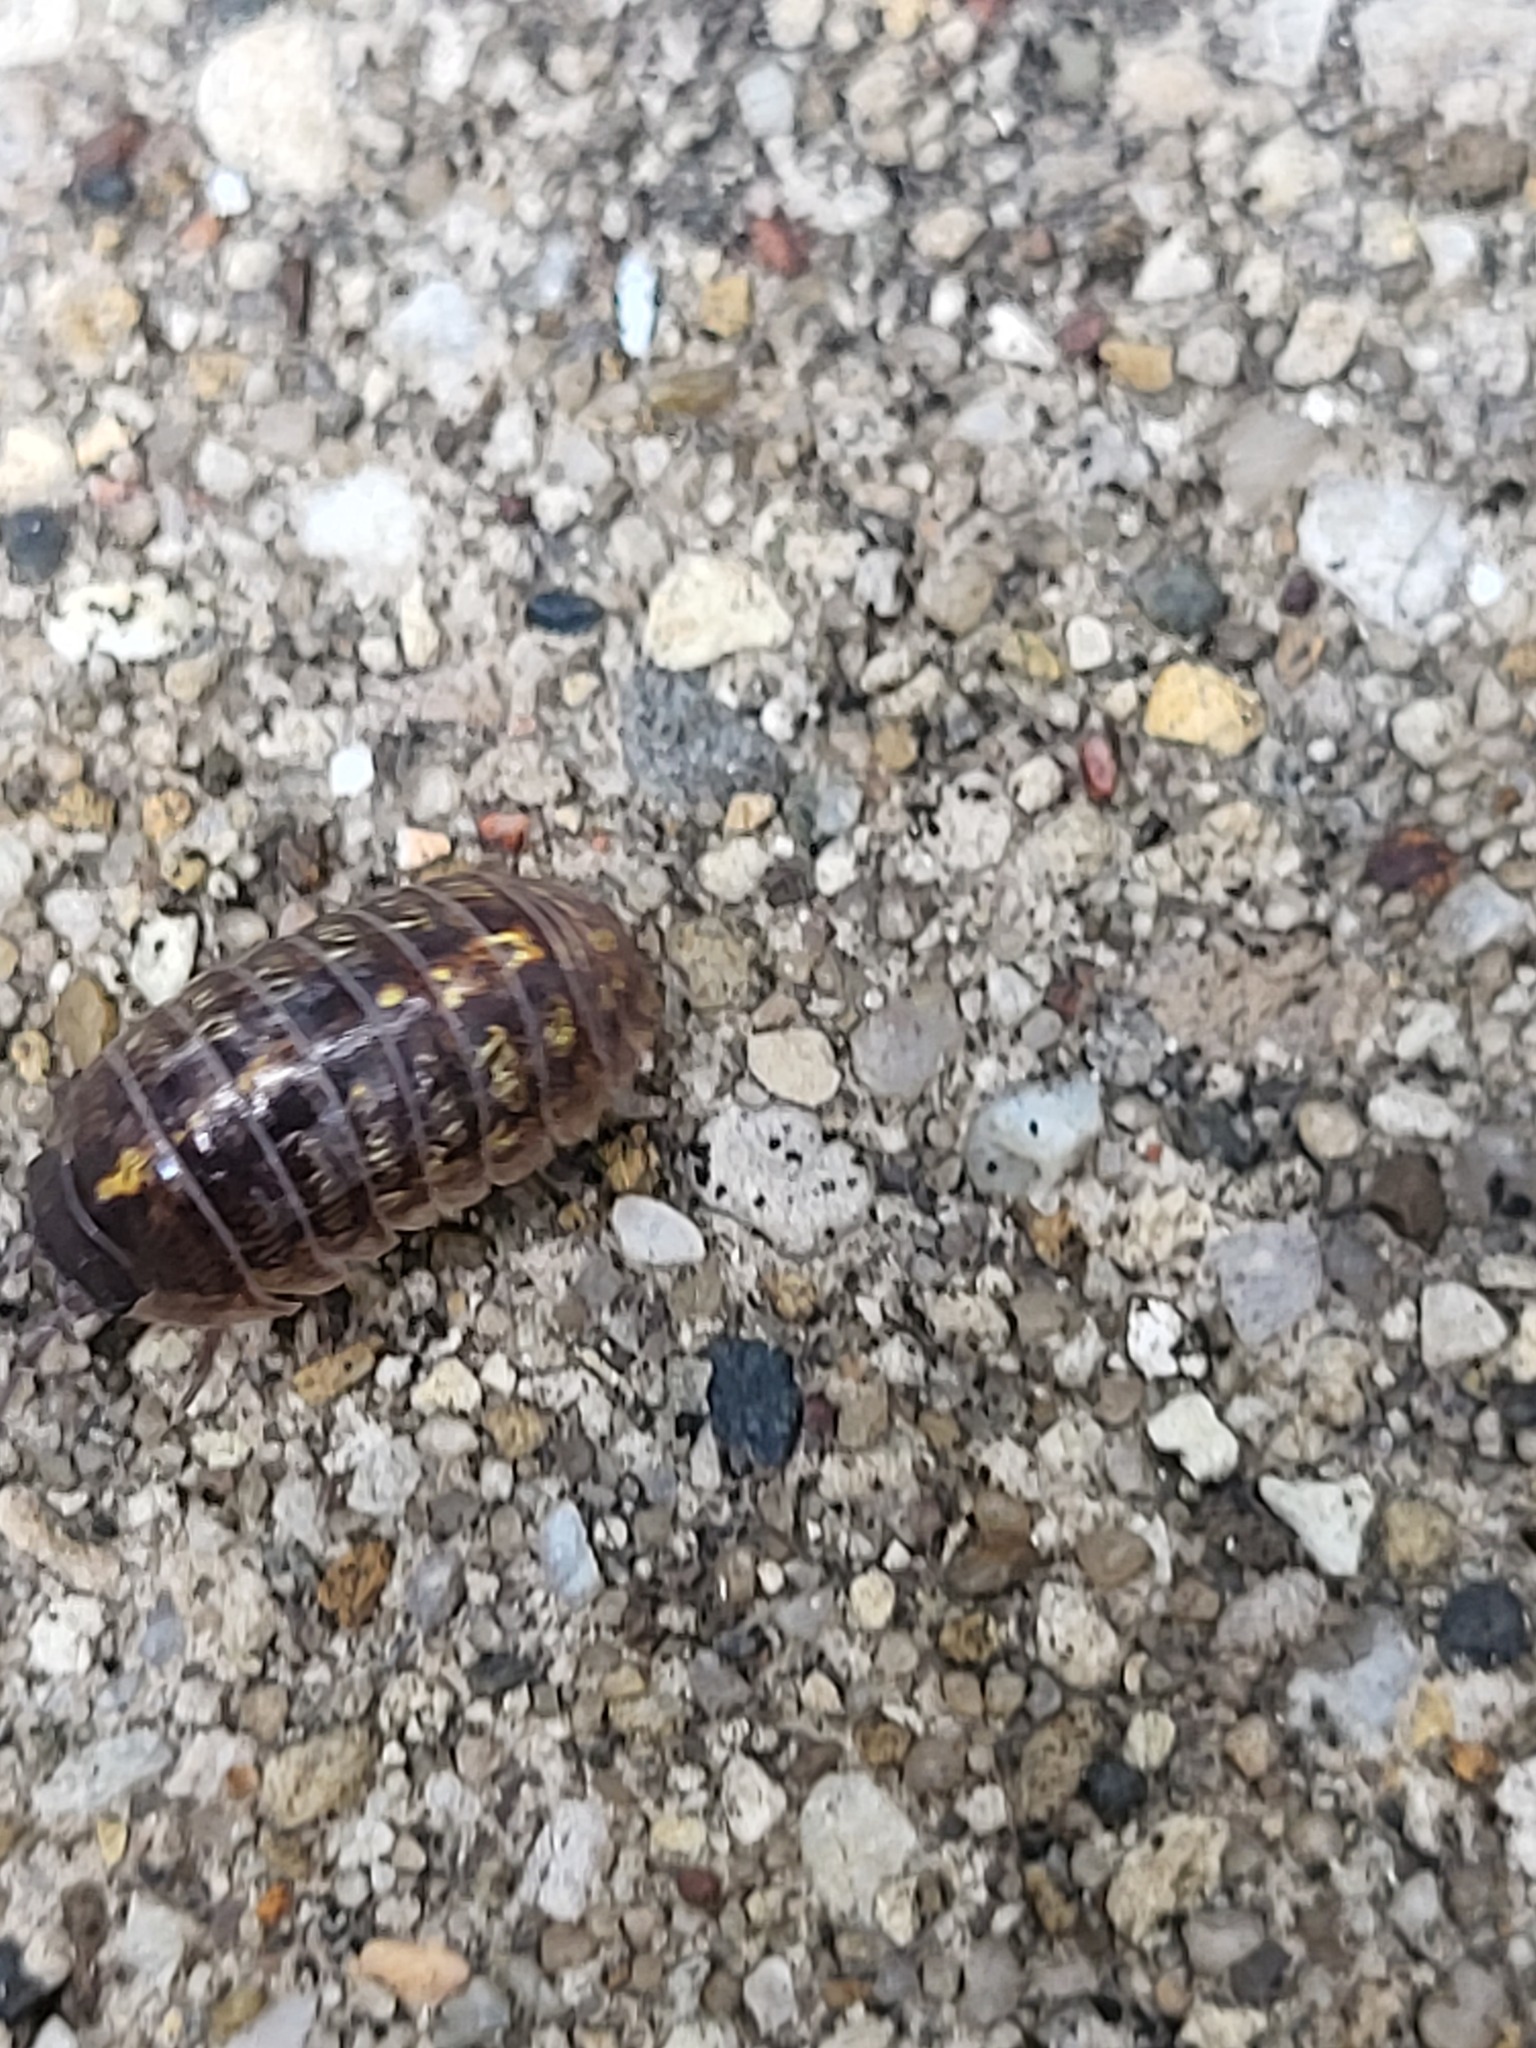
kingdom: Animalia
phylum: Arthropoda
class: Malacostraca
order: Isopoda
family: Armadillidiidae
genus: Armadillidium
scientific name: Armadillidium vulgare
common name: Common pill woodlouse
